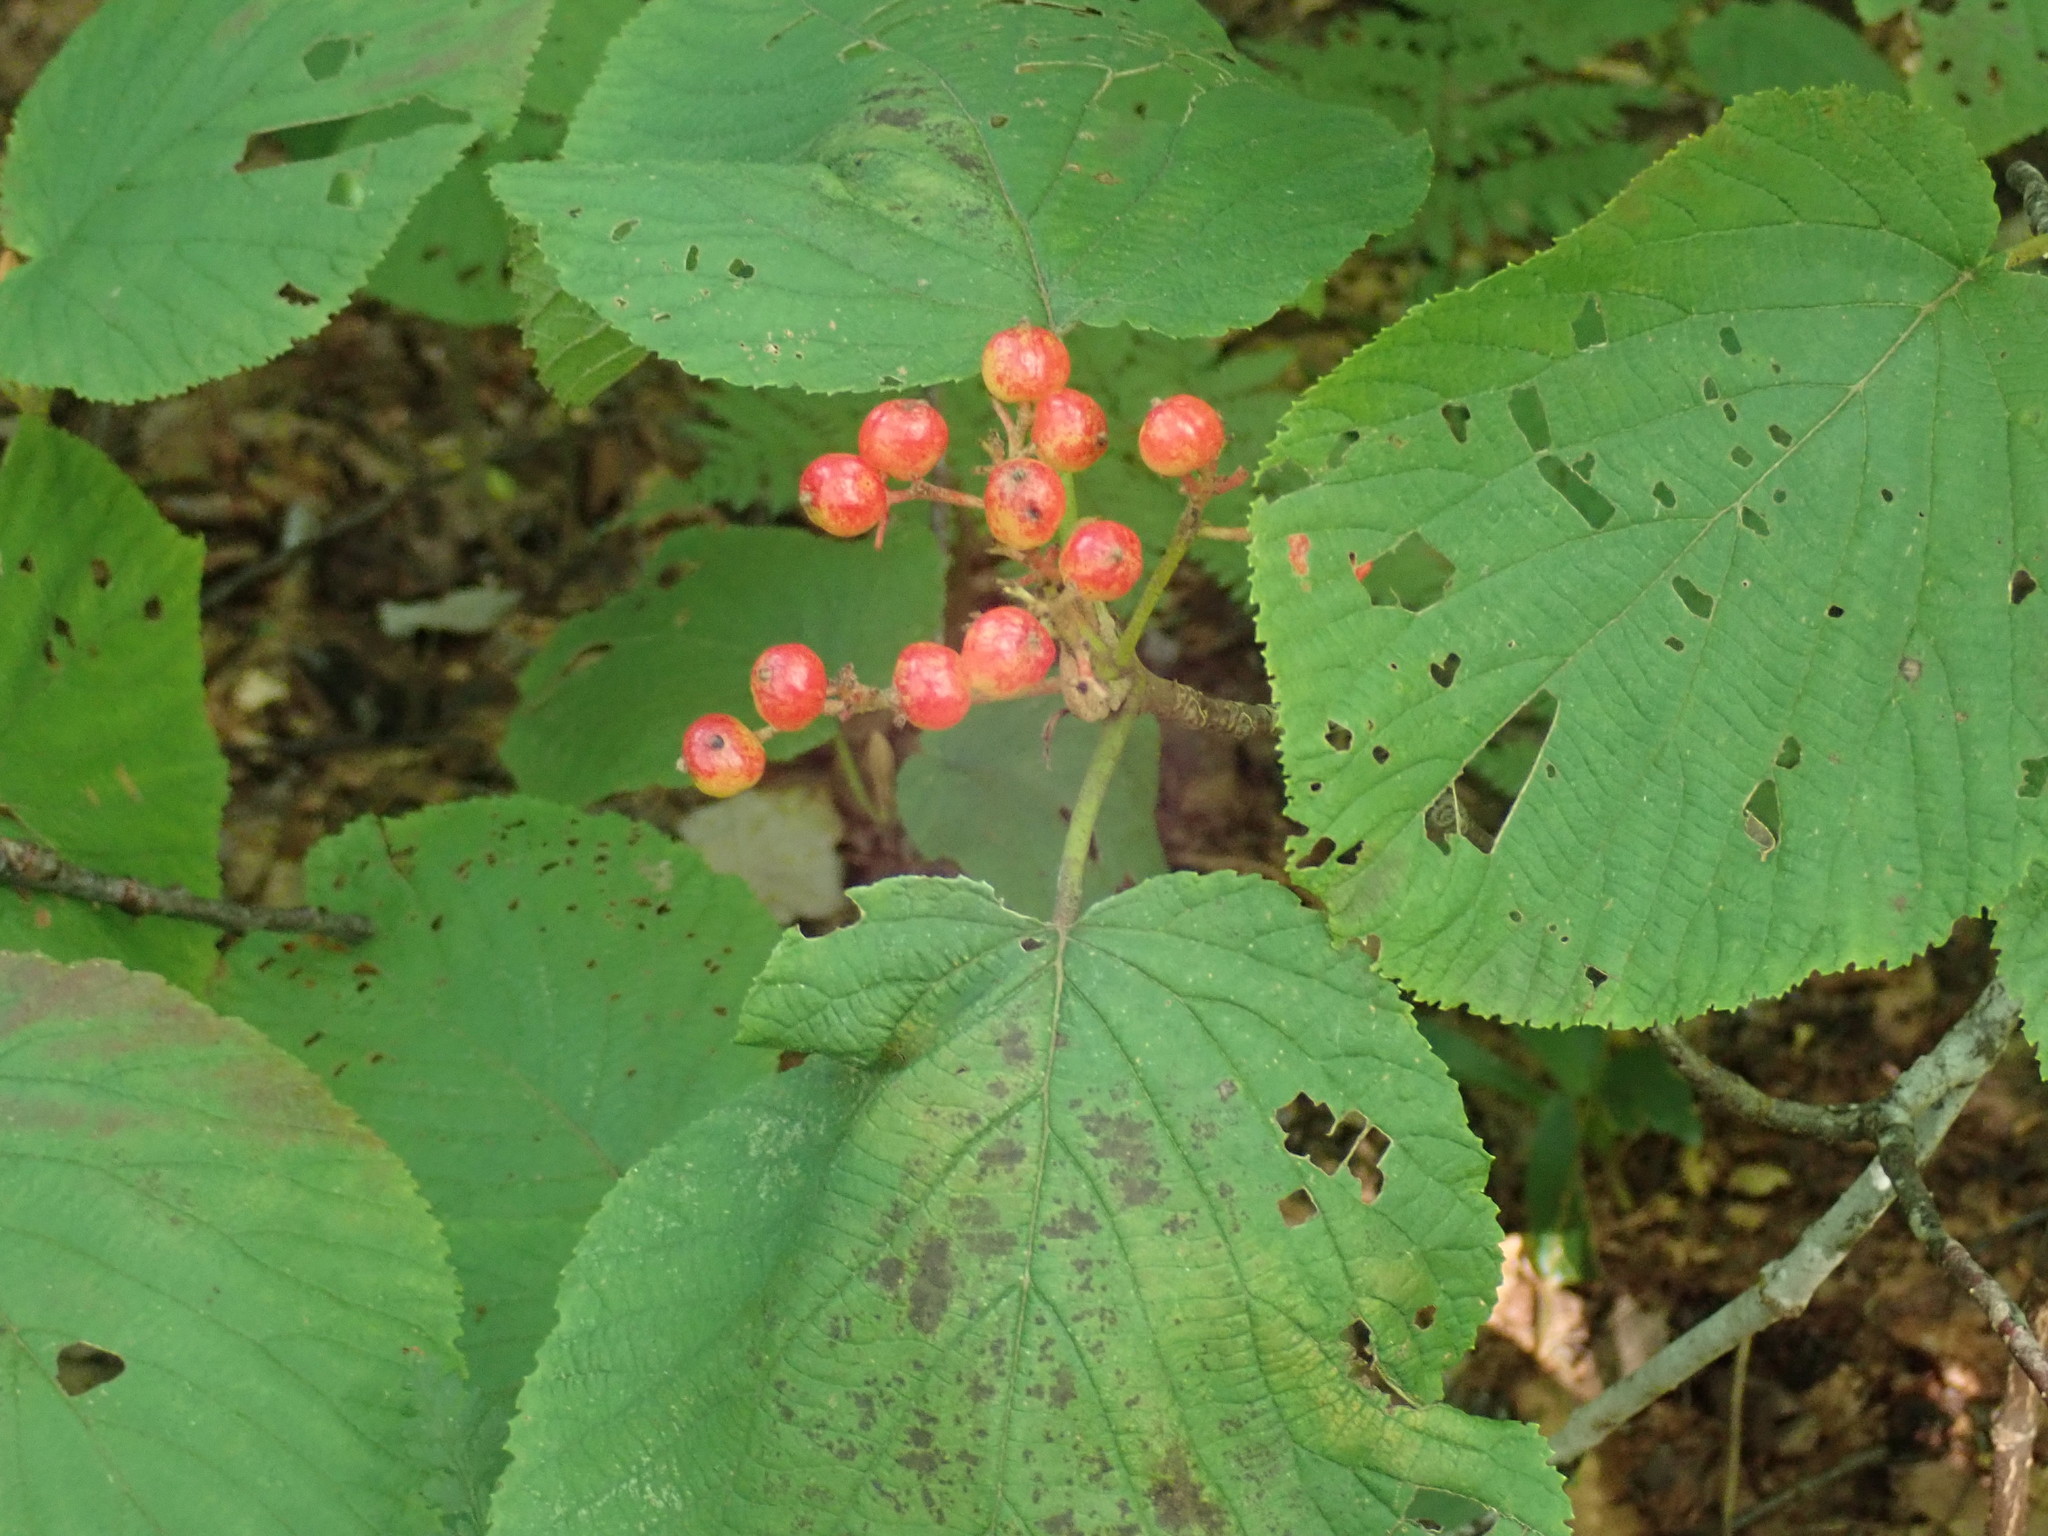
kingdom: Plantae
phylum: Tracheophyta
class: Magnoliopsida
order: Dipsacales
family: Viburnaceae
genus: Viburnum
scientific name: Viburnum lantanoides
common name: Hobblebush
